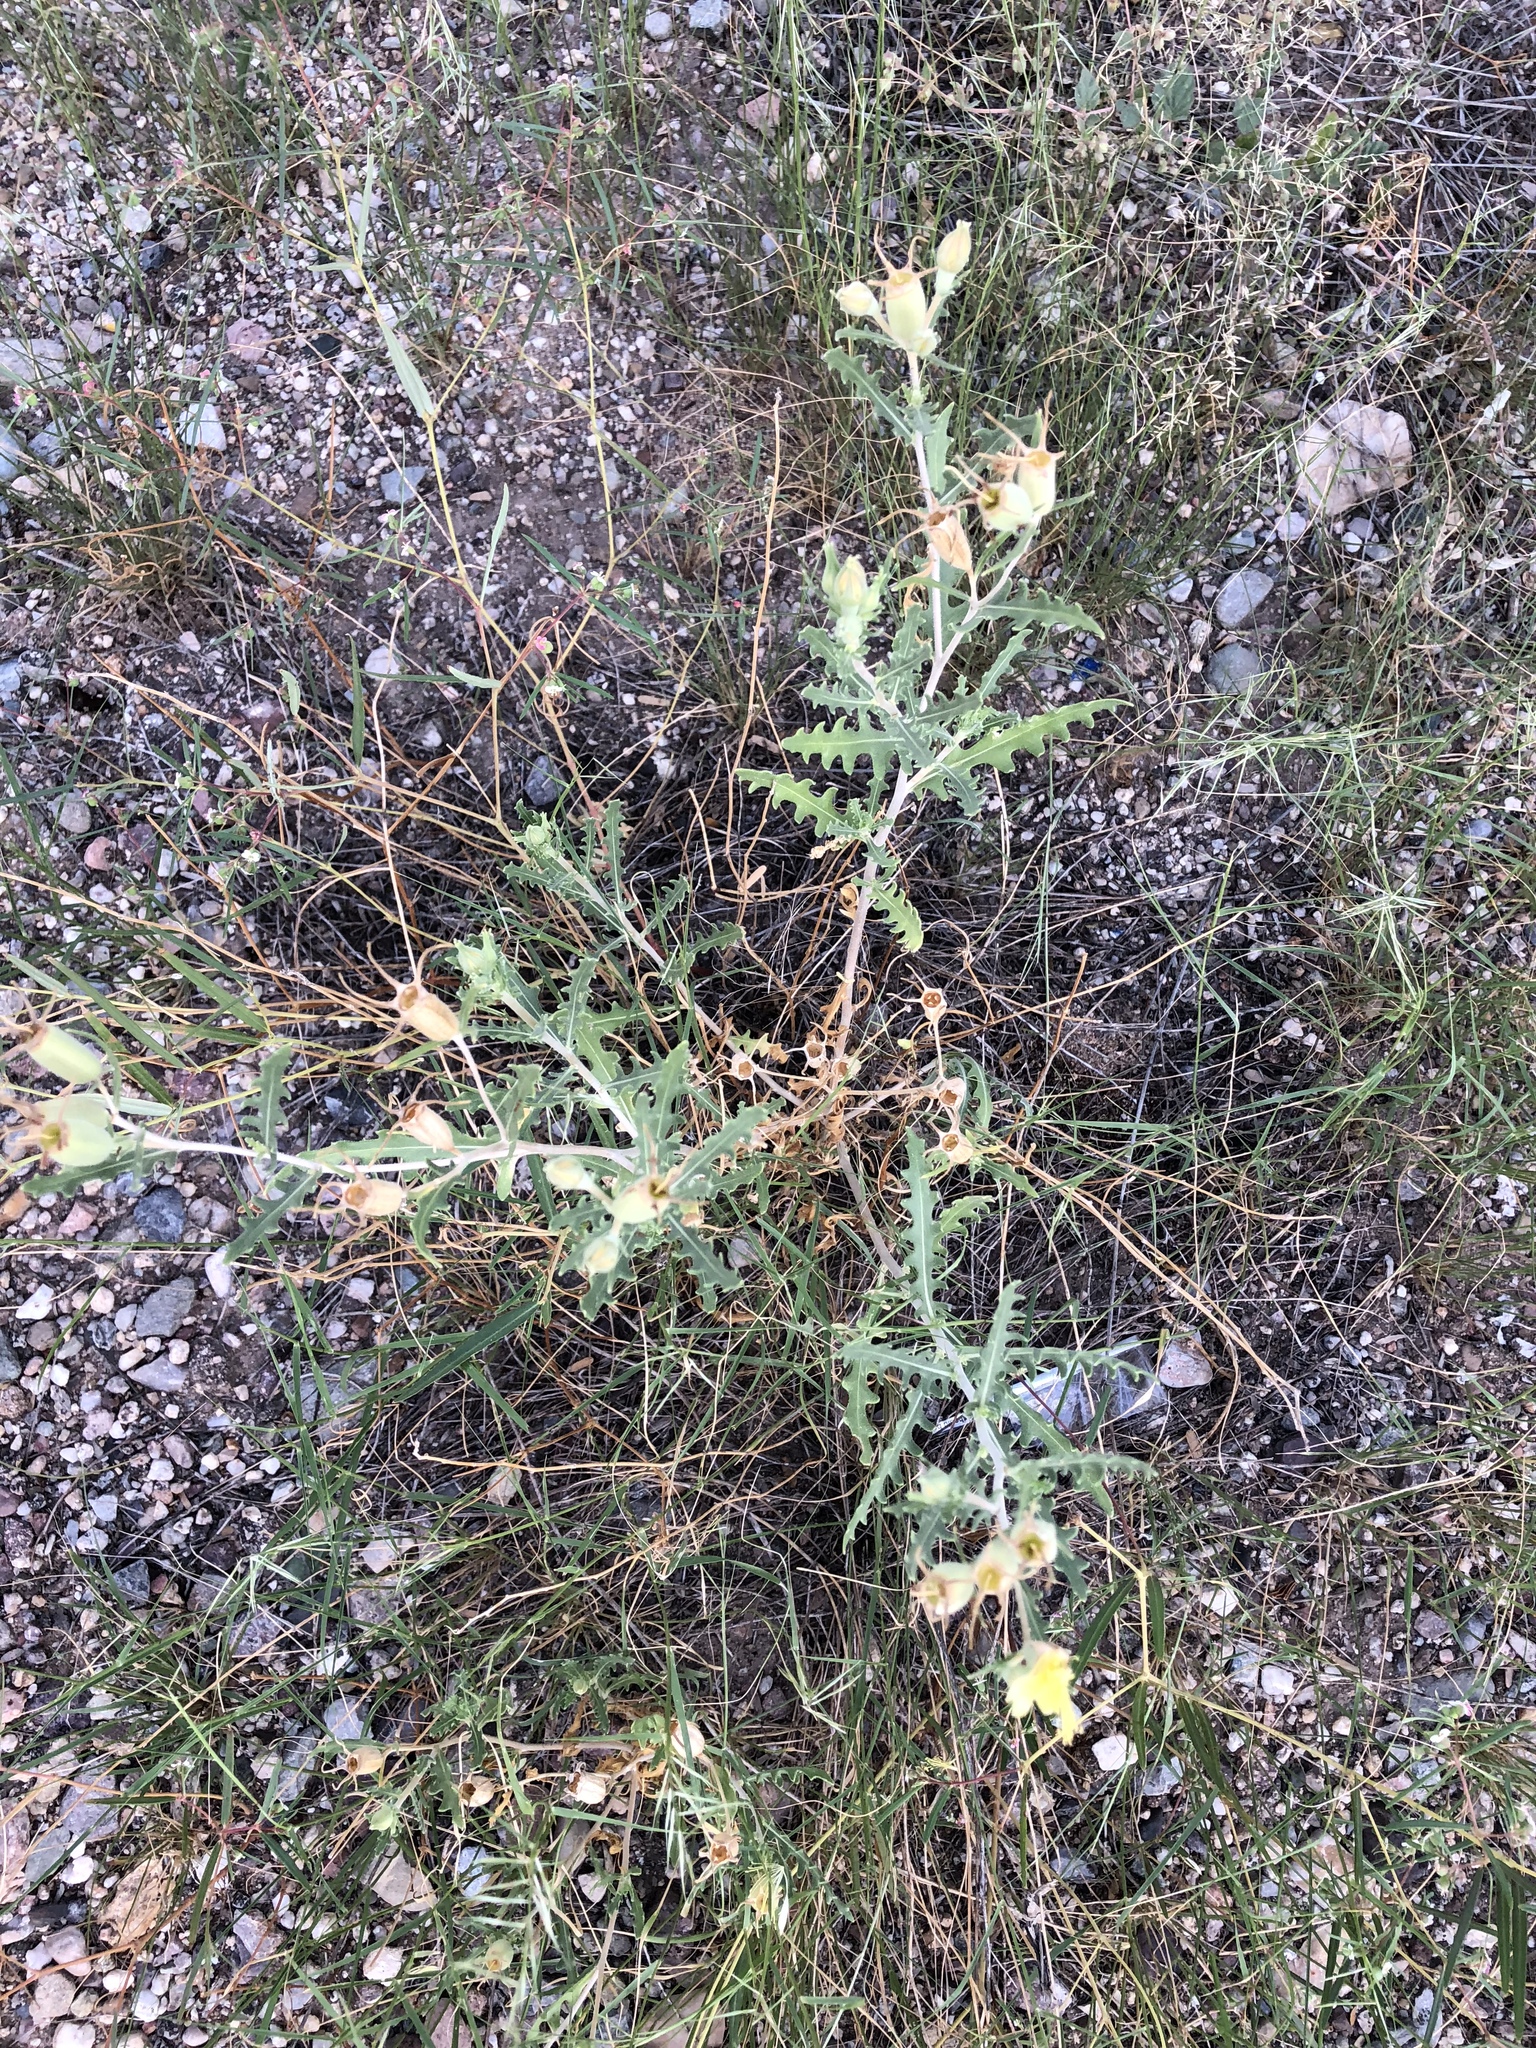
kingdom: Plantae
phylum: Tracheophyta
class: Magnoliopsida
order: Cornales
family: Loasaceae
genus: Mentzelia
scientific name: Mentzelia longiloba
